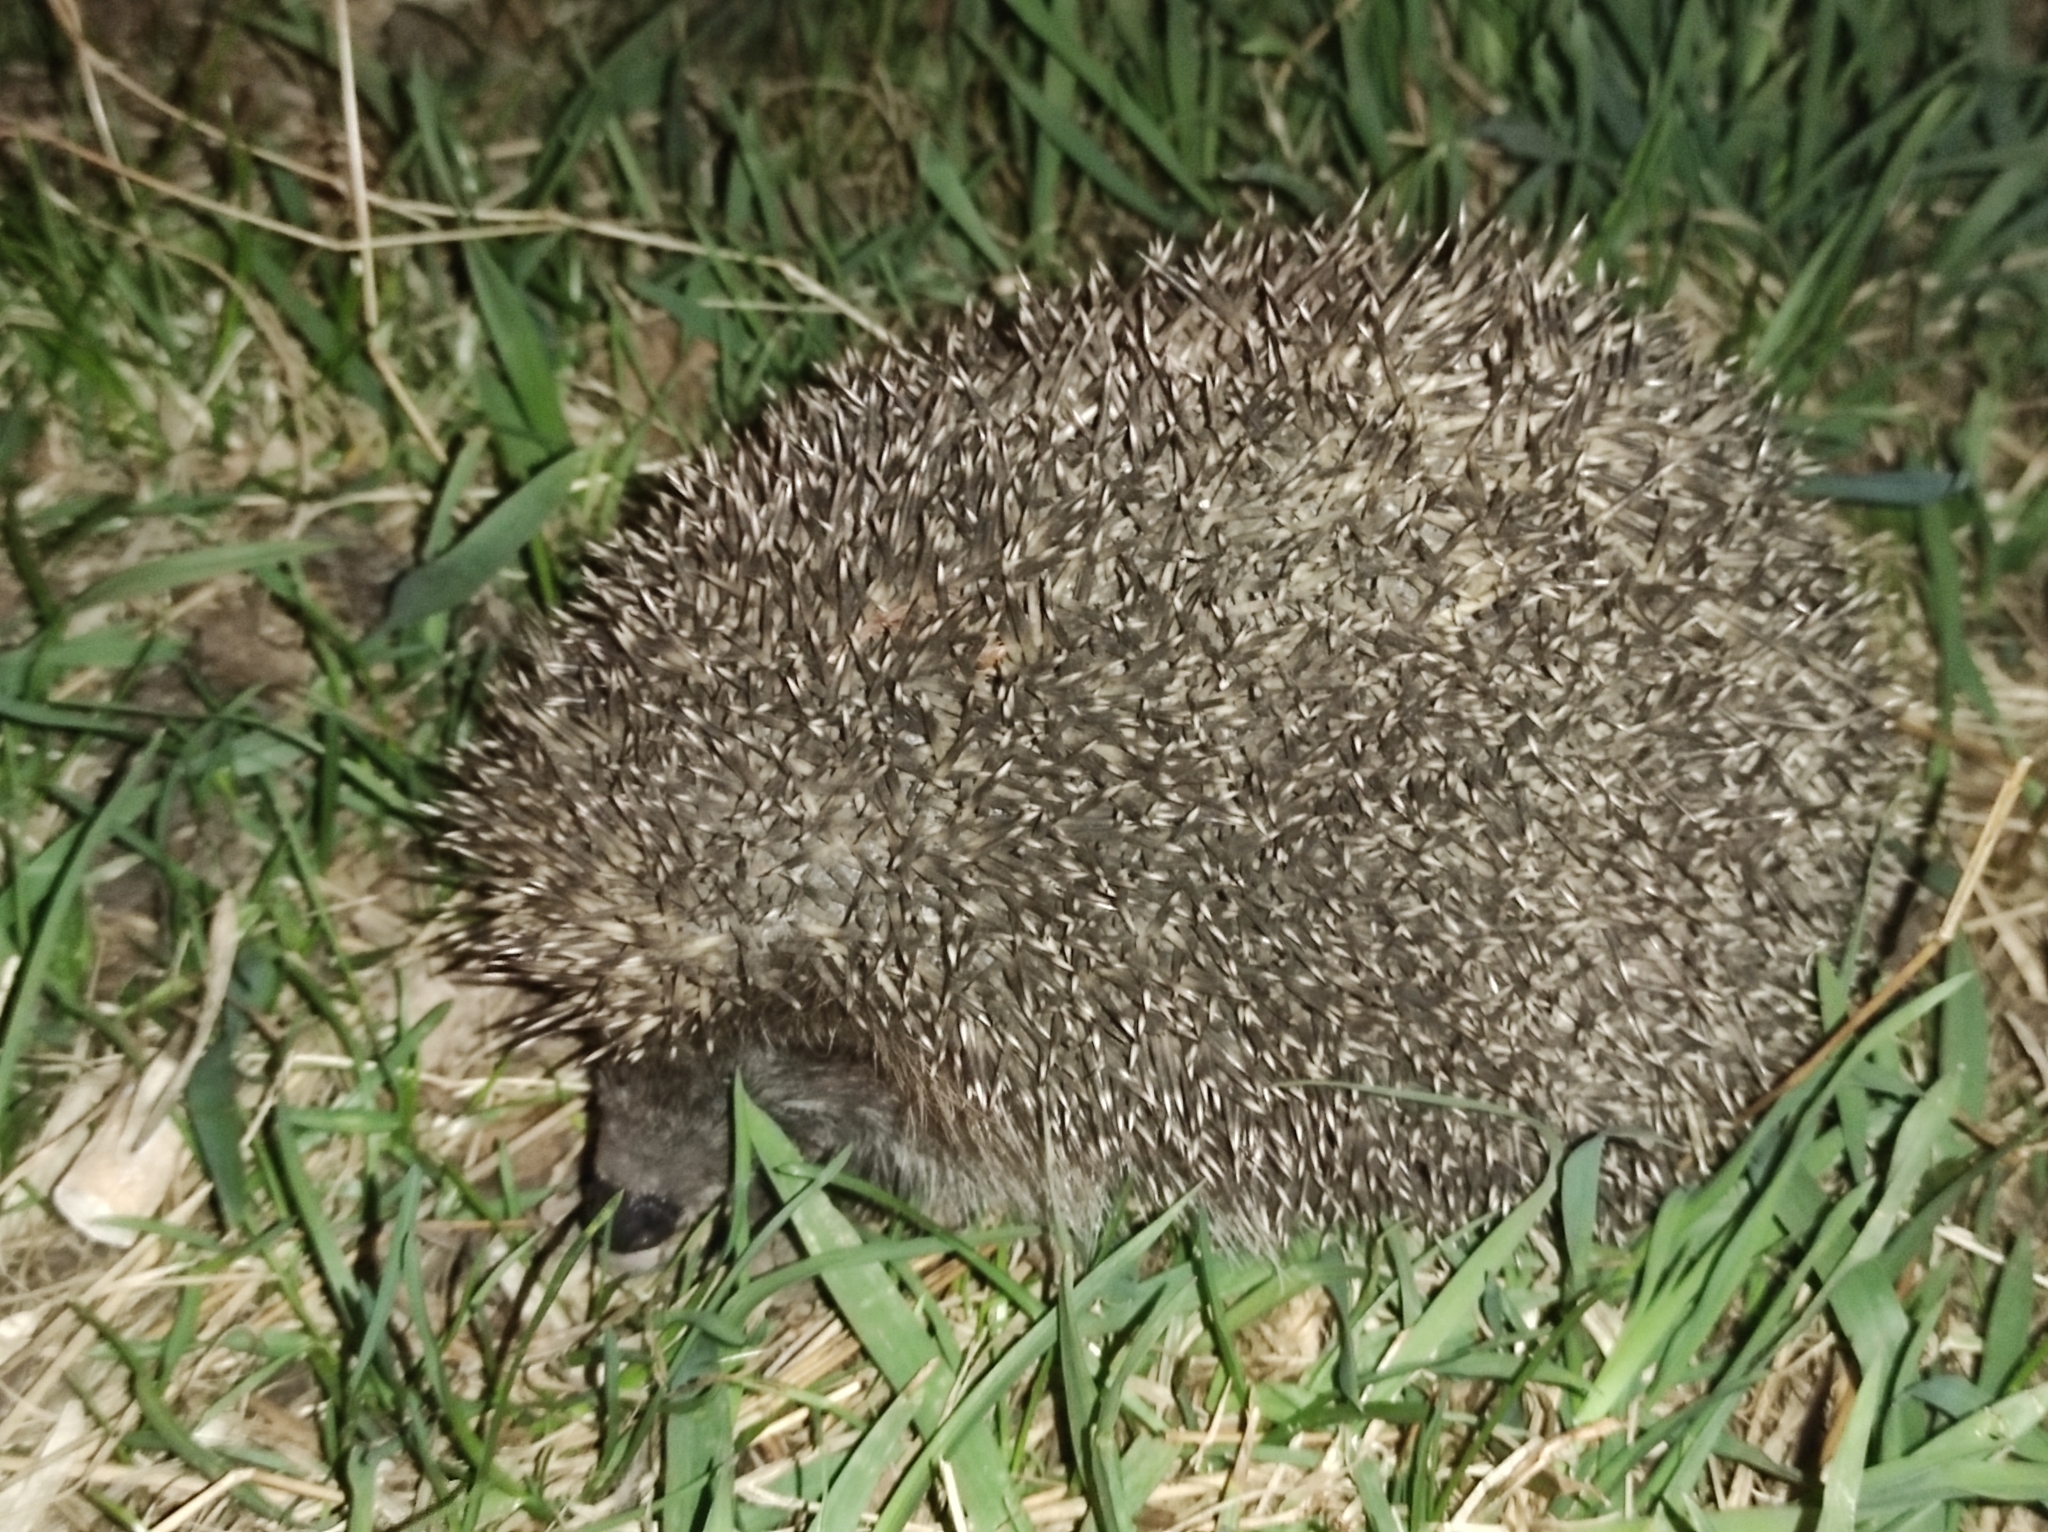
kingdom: Animalia
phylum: Chordata
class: Mammalia
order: Erinaceomorpha
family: Erinaceidae
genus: Erinaceus
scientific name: Erinaceus roumanicus
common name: Northern white-breasted hedgehog
